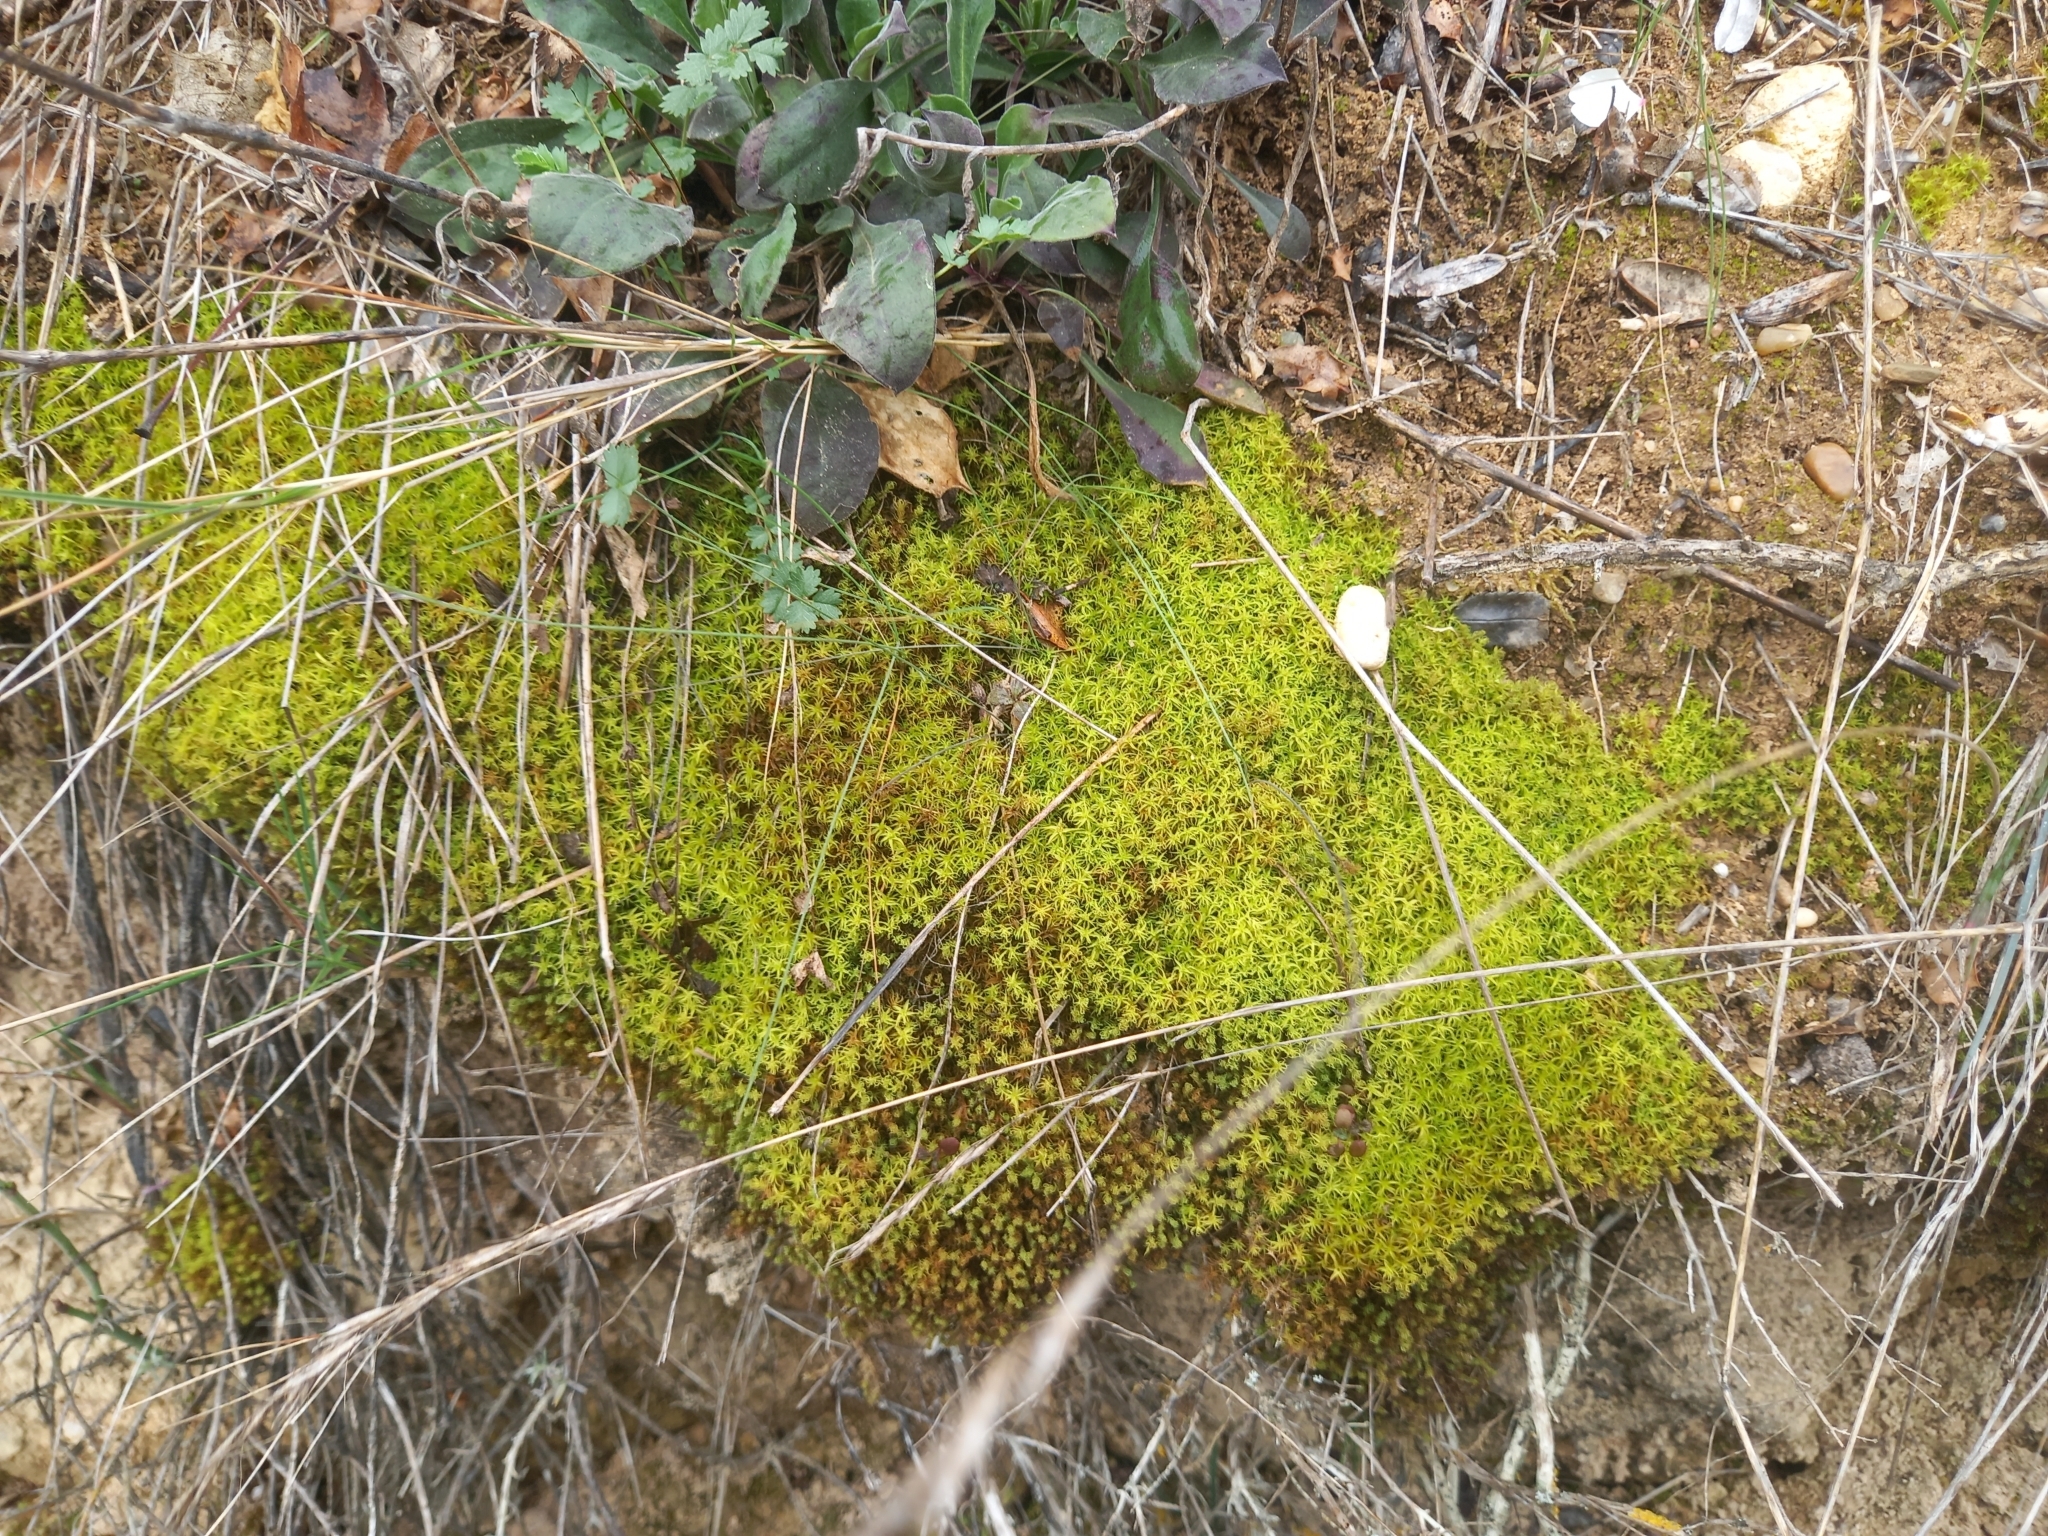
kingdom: Plantae
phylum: Bryophyta
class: Bryopsida
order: Pottiales
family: Pottiaceae
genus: Pleurochaete
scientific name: Pleurochaete squarrosa
